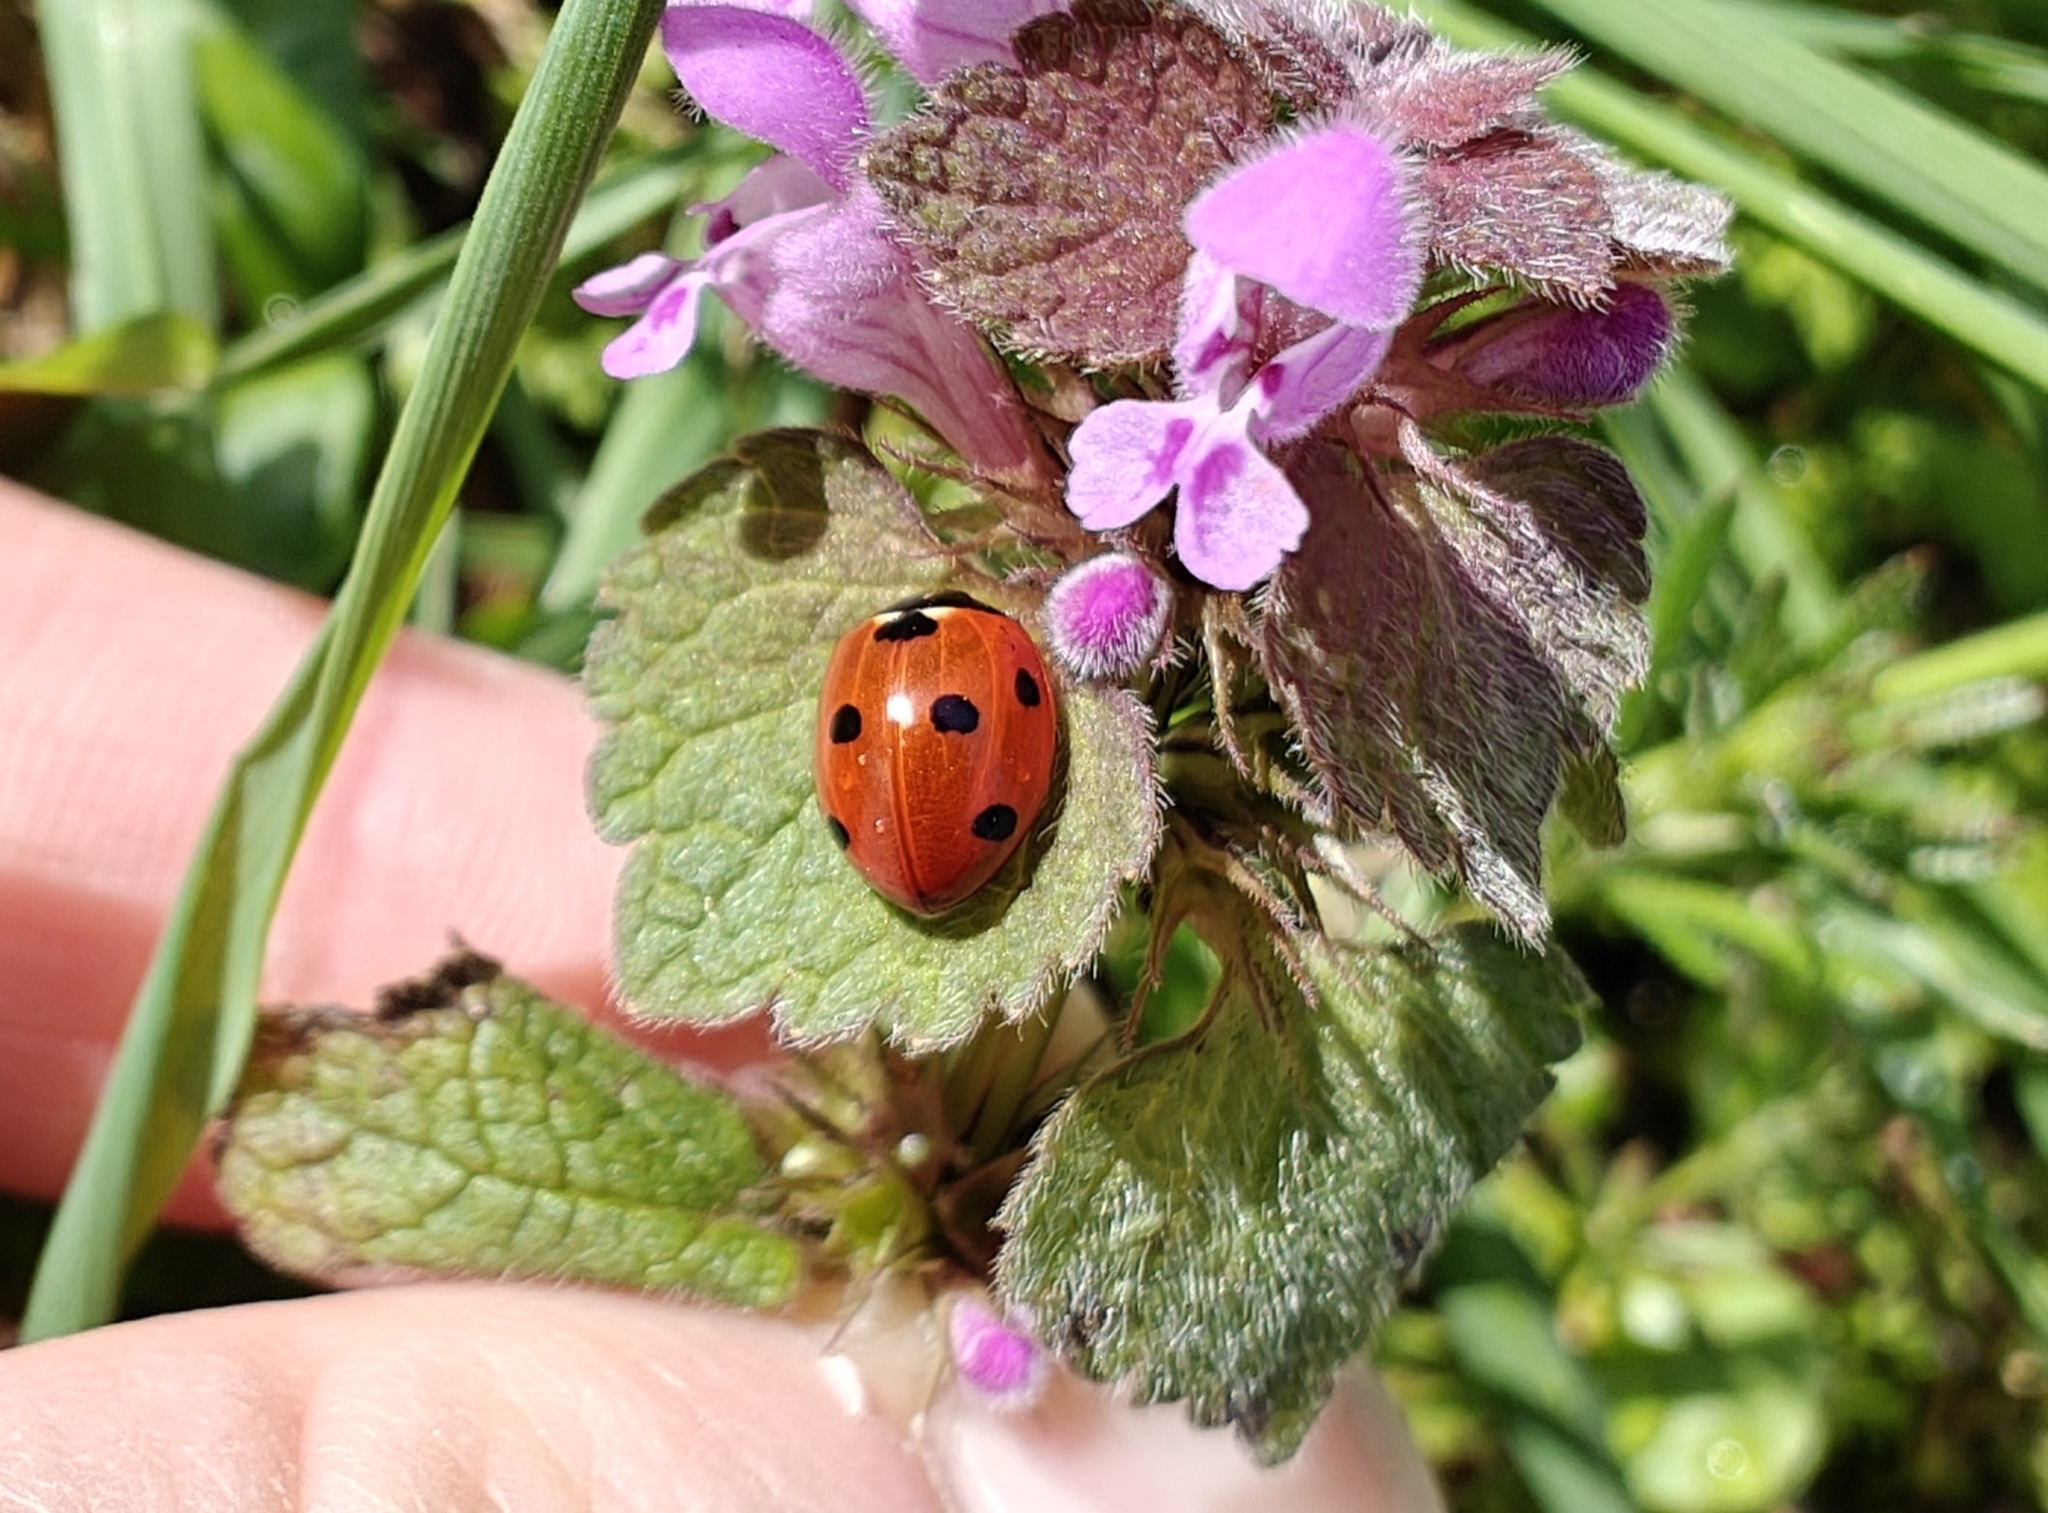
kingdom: Animalia
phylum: Arthropoda
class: Insecta
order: Coleoptera
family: Coccinellidae
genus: Coccinella
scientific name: Coccinella septempunctata
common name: Sevenspotted lady beetle
